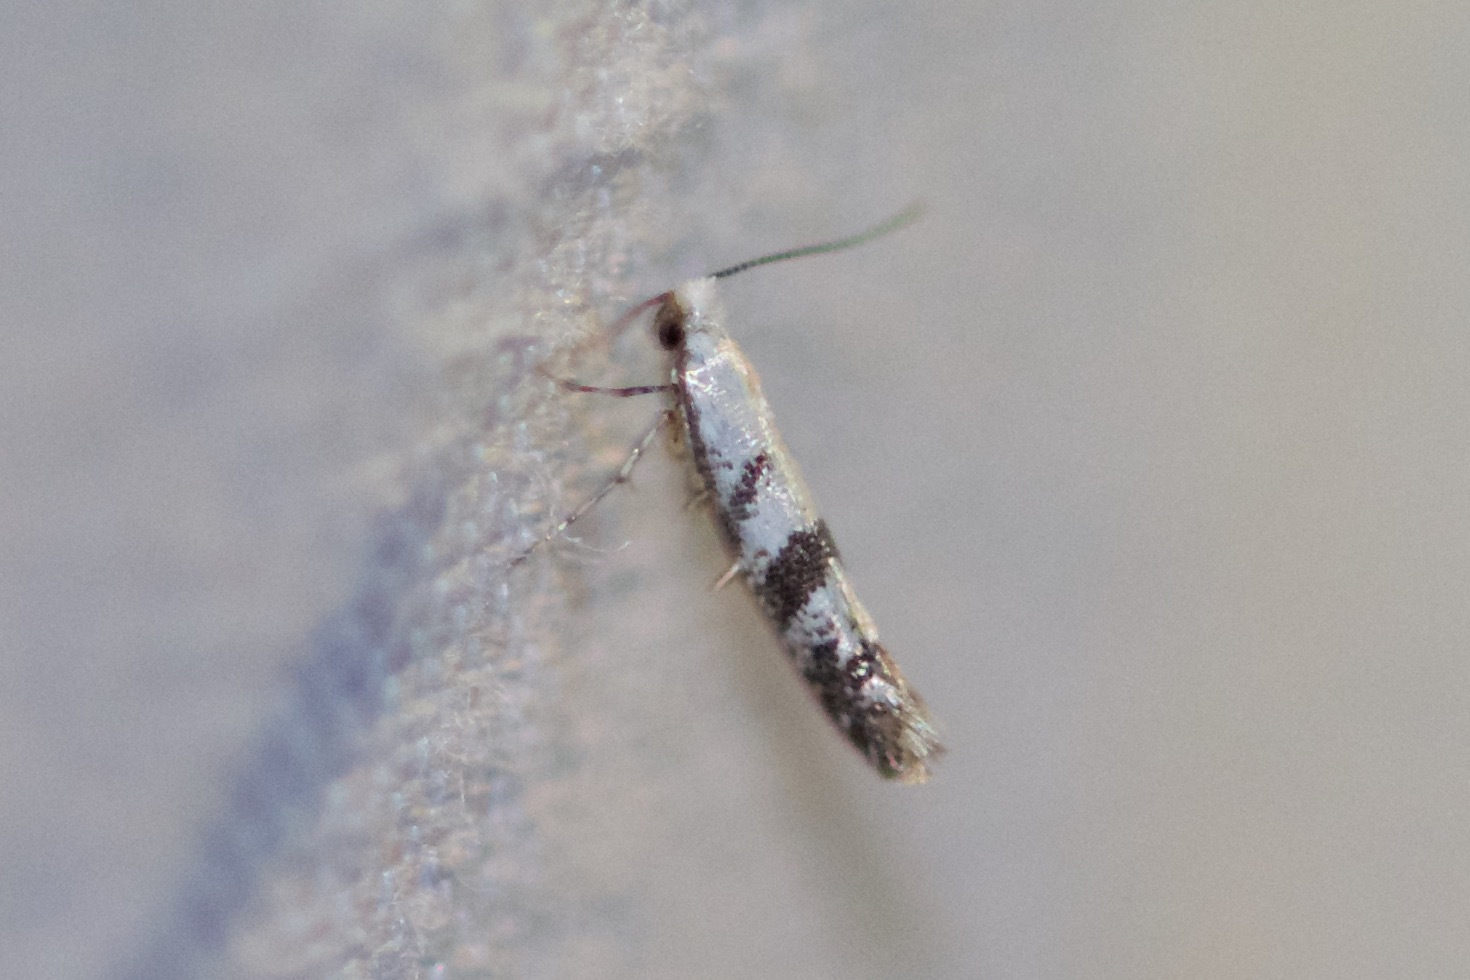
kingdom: Animalia
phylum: Arthropoda
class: Insecta
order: Lepidoptera
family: Argyresthiidae
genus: Argyresthia
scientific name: Argyresthia austerella
